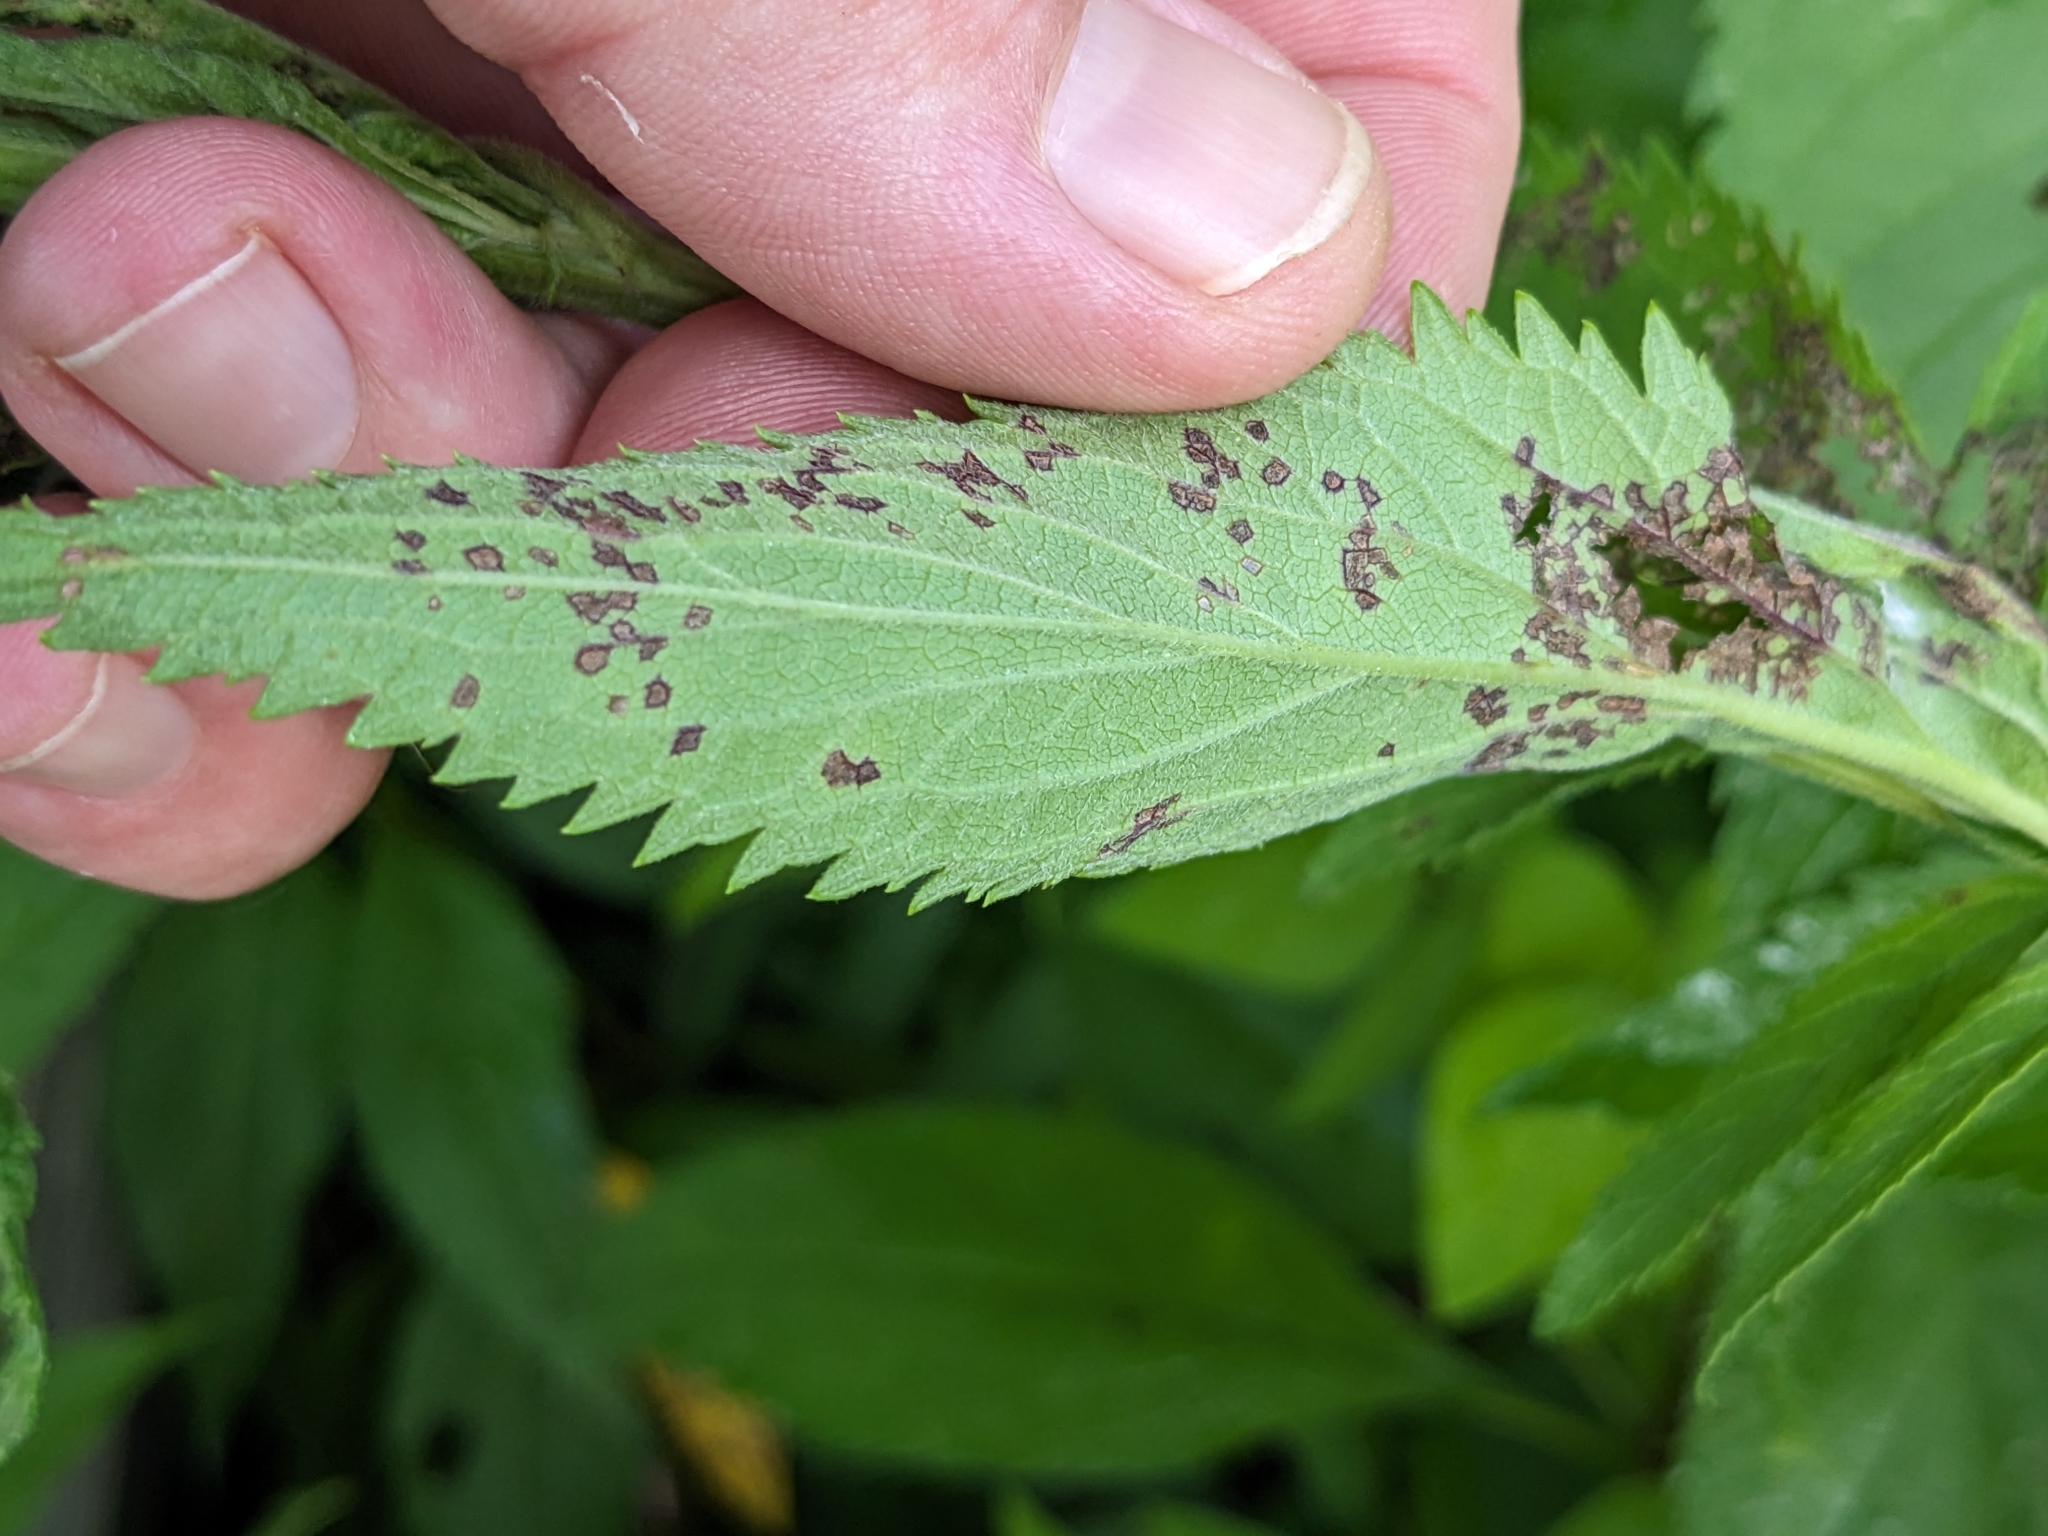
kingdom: Plantae
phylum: Tracheophyta
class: Magnoliopsida
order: Lamiales
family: Verbenaceae
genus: Verbena
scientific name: Verbena hastata
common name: American blue vervain
